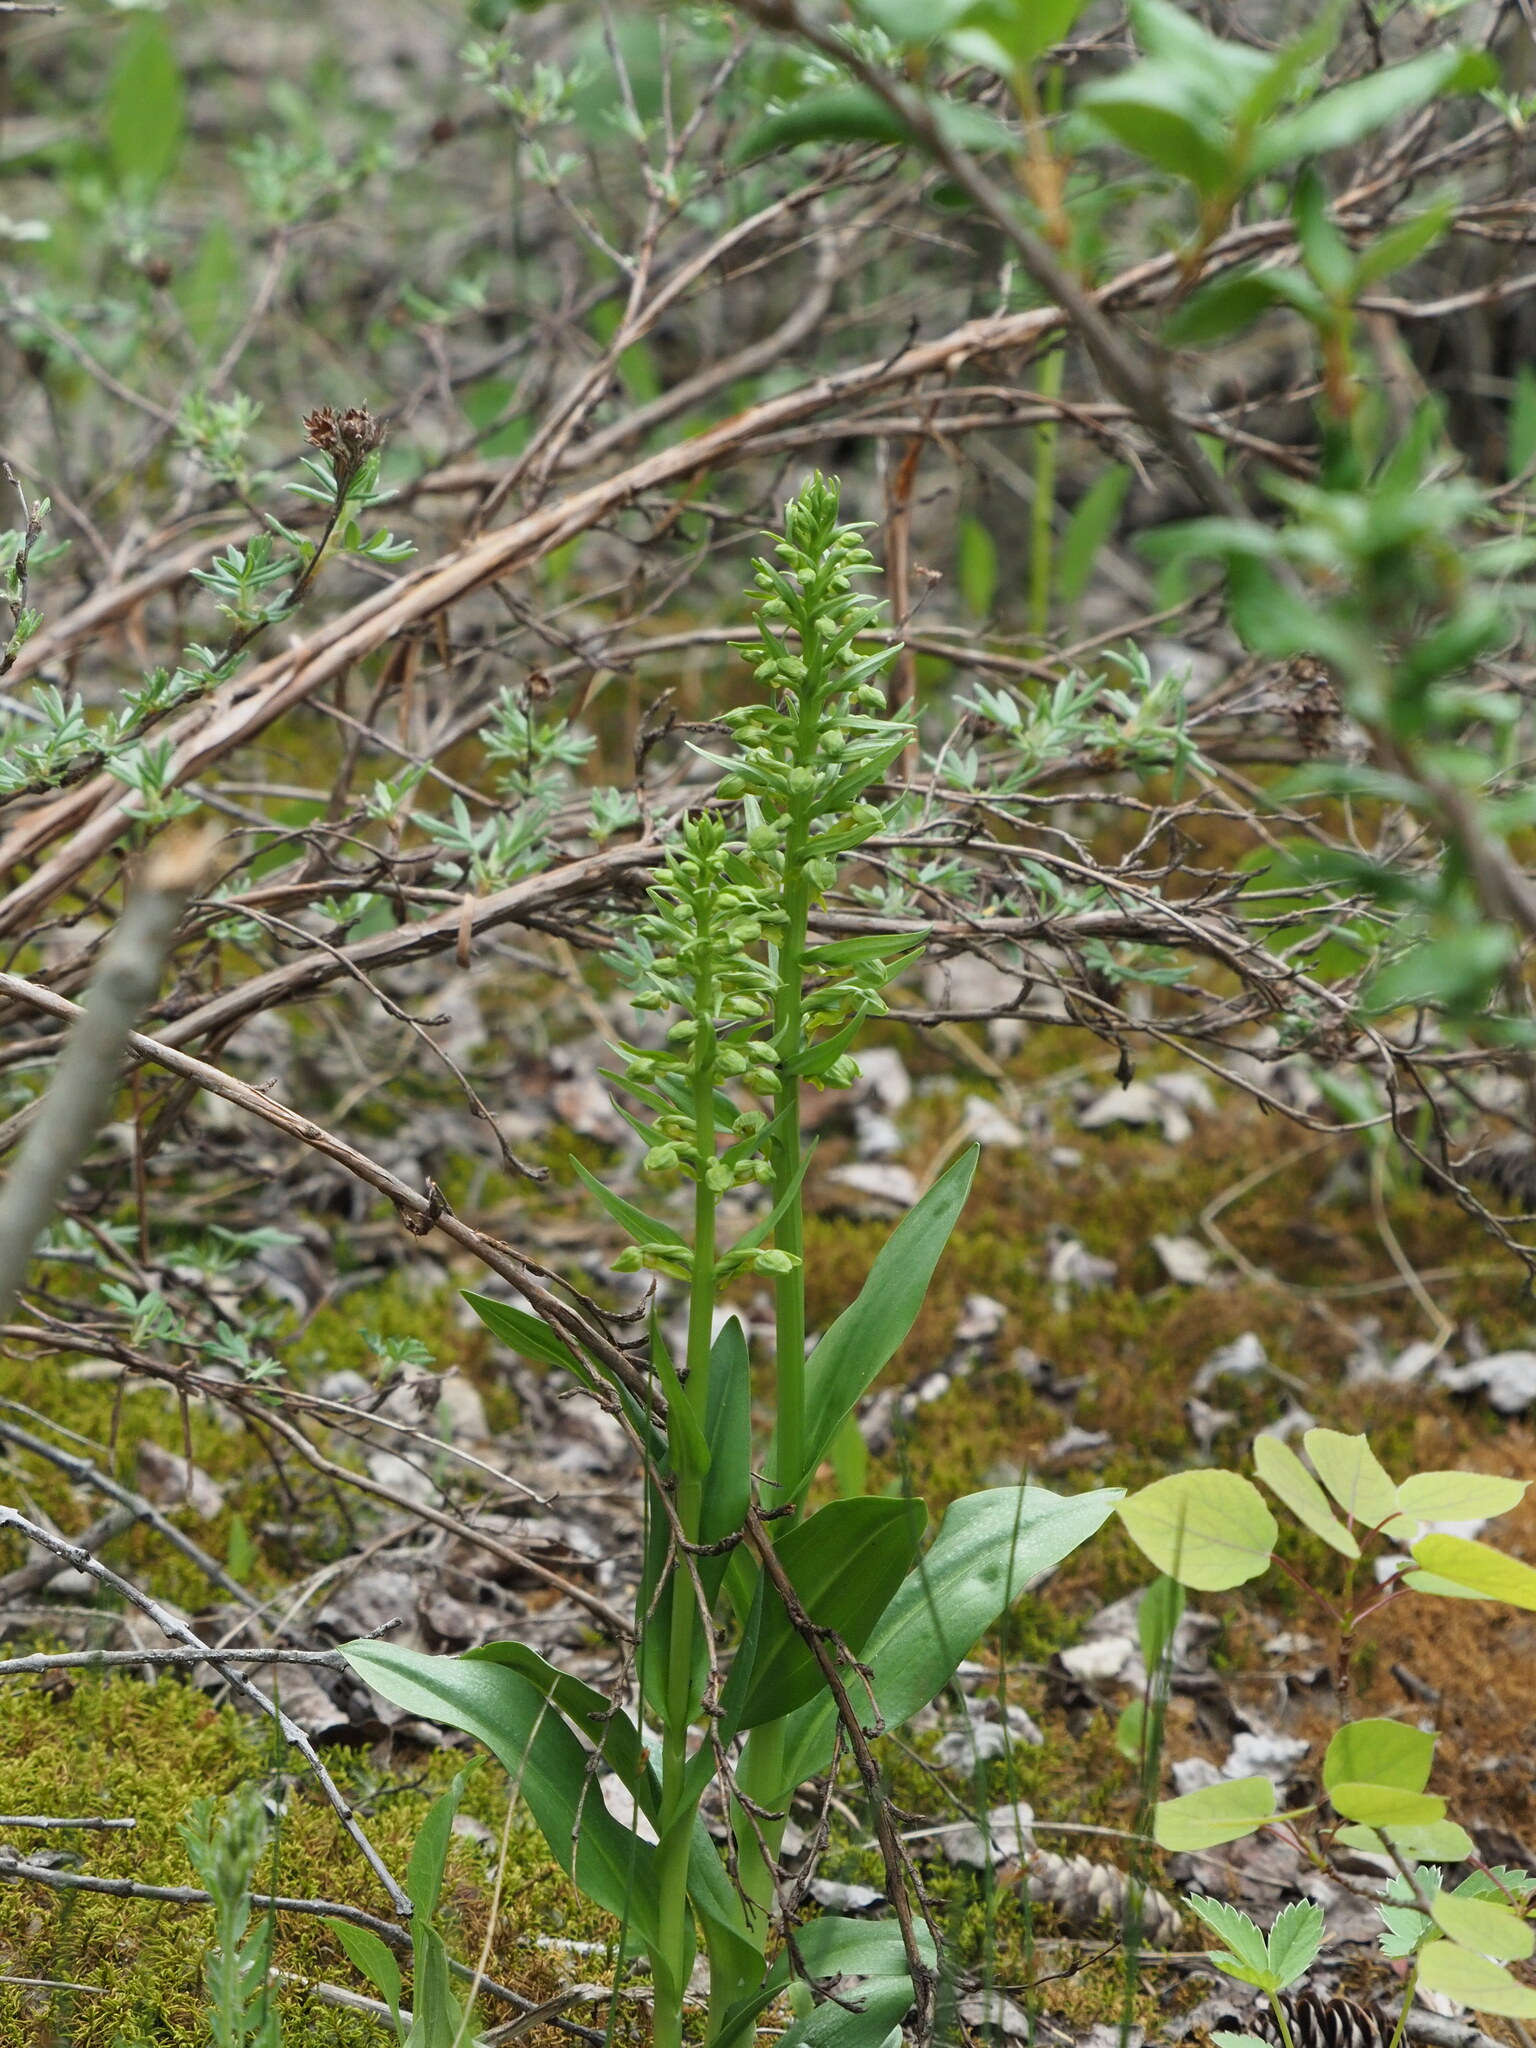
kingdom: Plantae
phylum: Tracheophyta
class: Liliopsida
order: Asparagales
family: Orchidaceae
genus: Dactylorhiza
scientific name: Dactylorhiza viridis
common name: Longbract frog orchid
